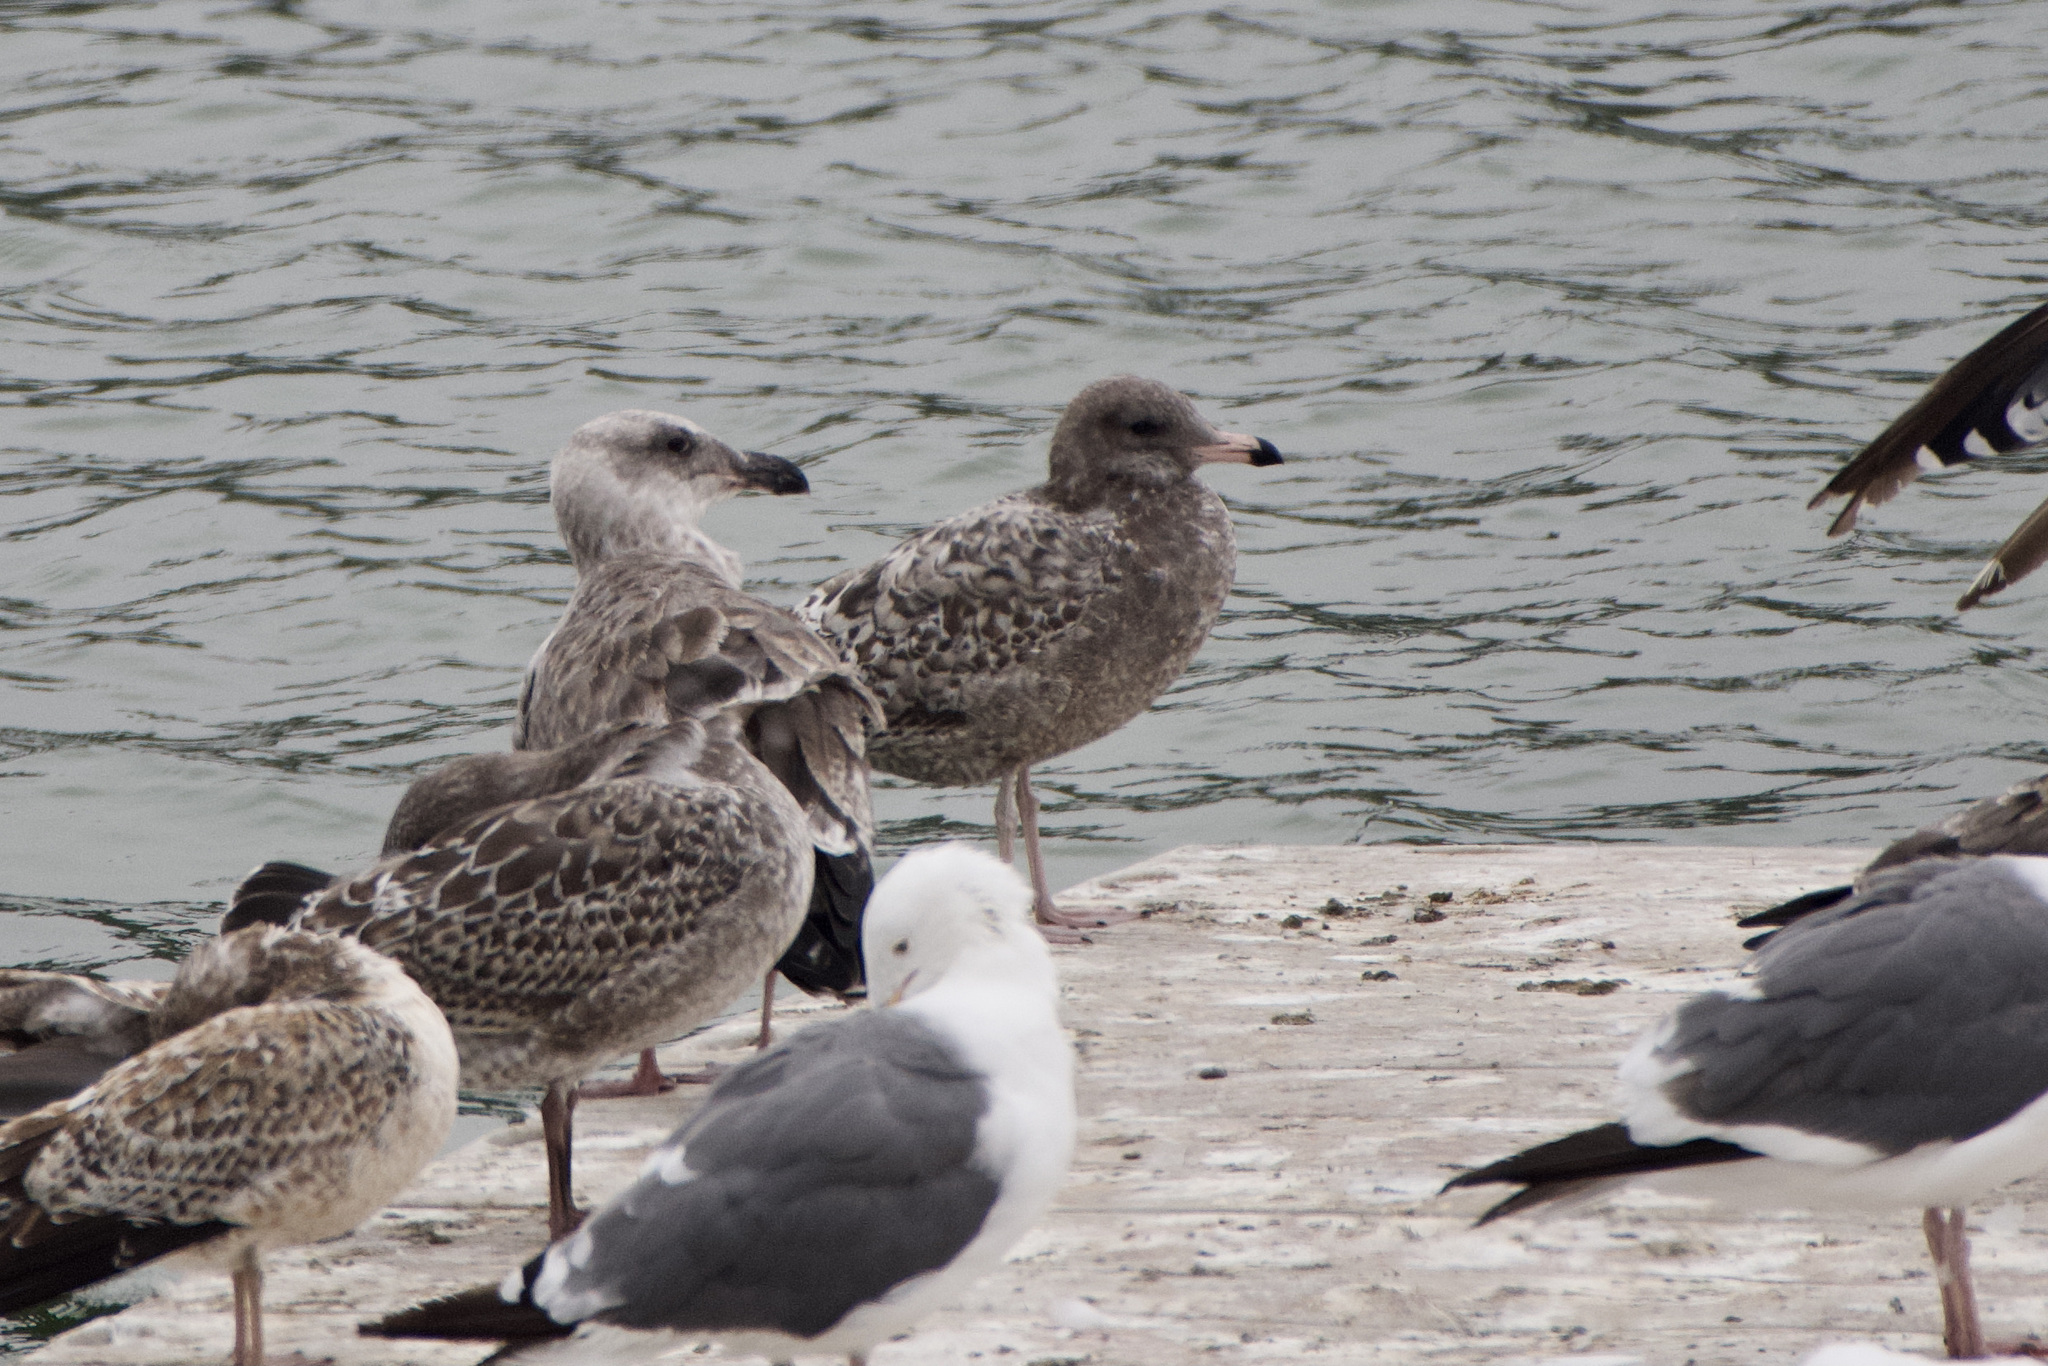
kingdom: Animalia
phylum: Chordata
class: Aves
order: Charadriiformes
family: Laridae
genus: Larus
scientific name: Larus californicus
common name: California gull
